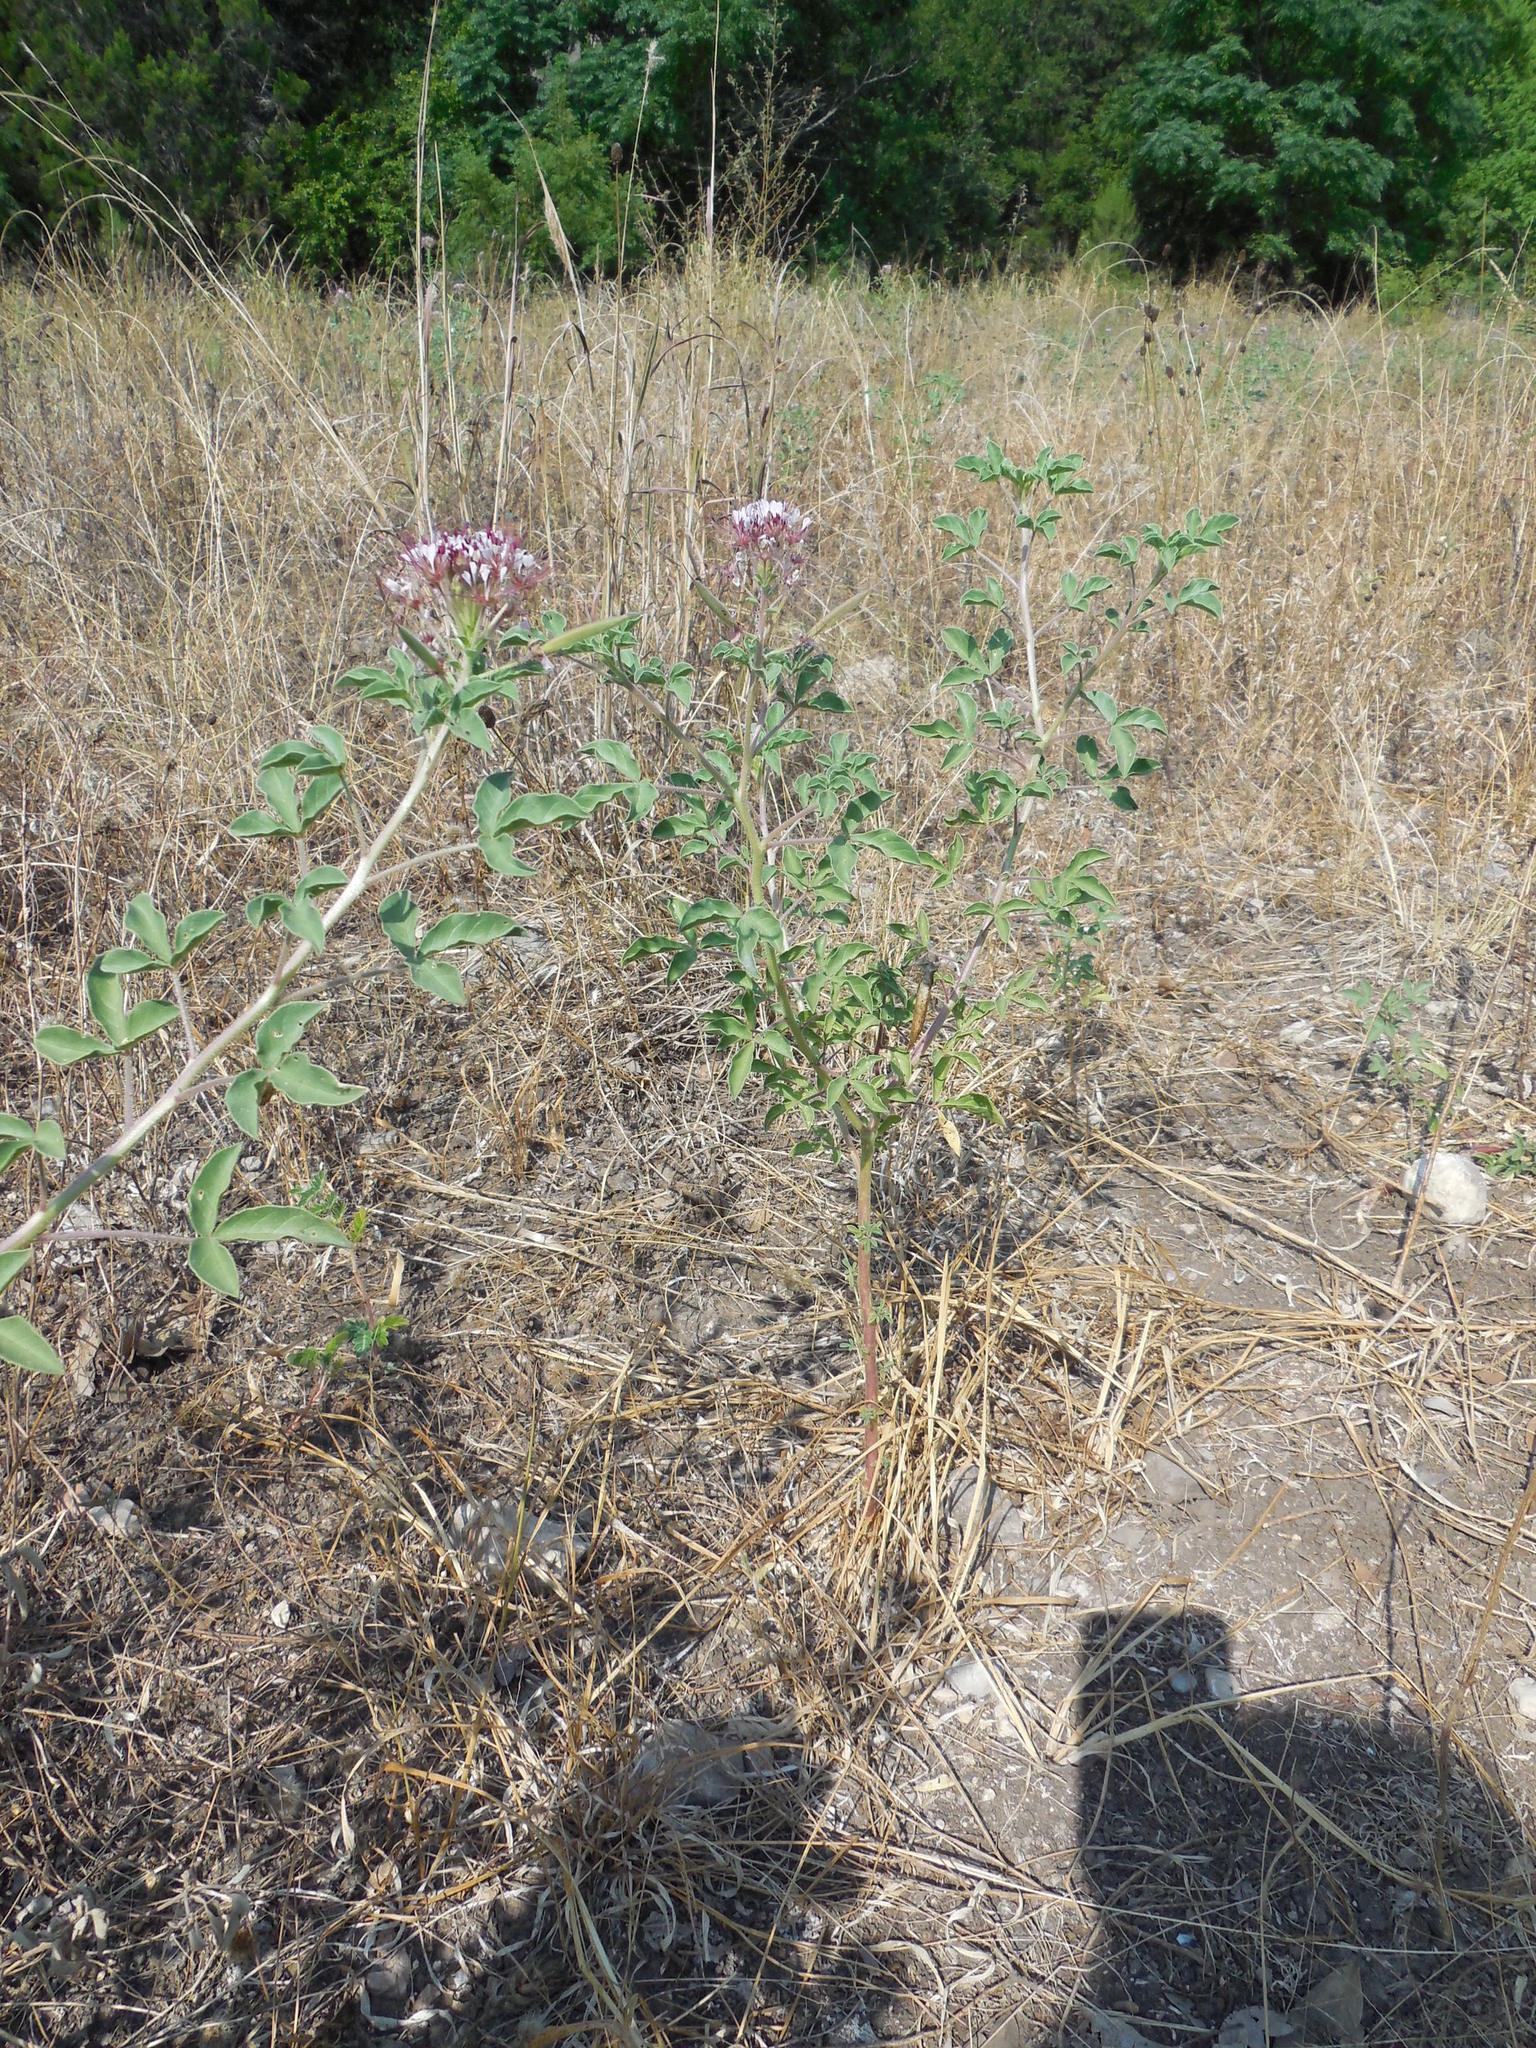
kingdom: Plantae
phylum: Tracheophyta
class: Magnoliopsida
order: Brassicales
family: Cleomaceae
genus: Polanisia
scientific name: Polanisia dodecandra
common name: Clammyweed
